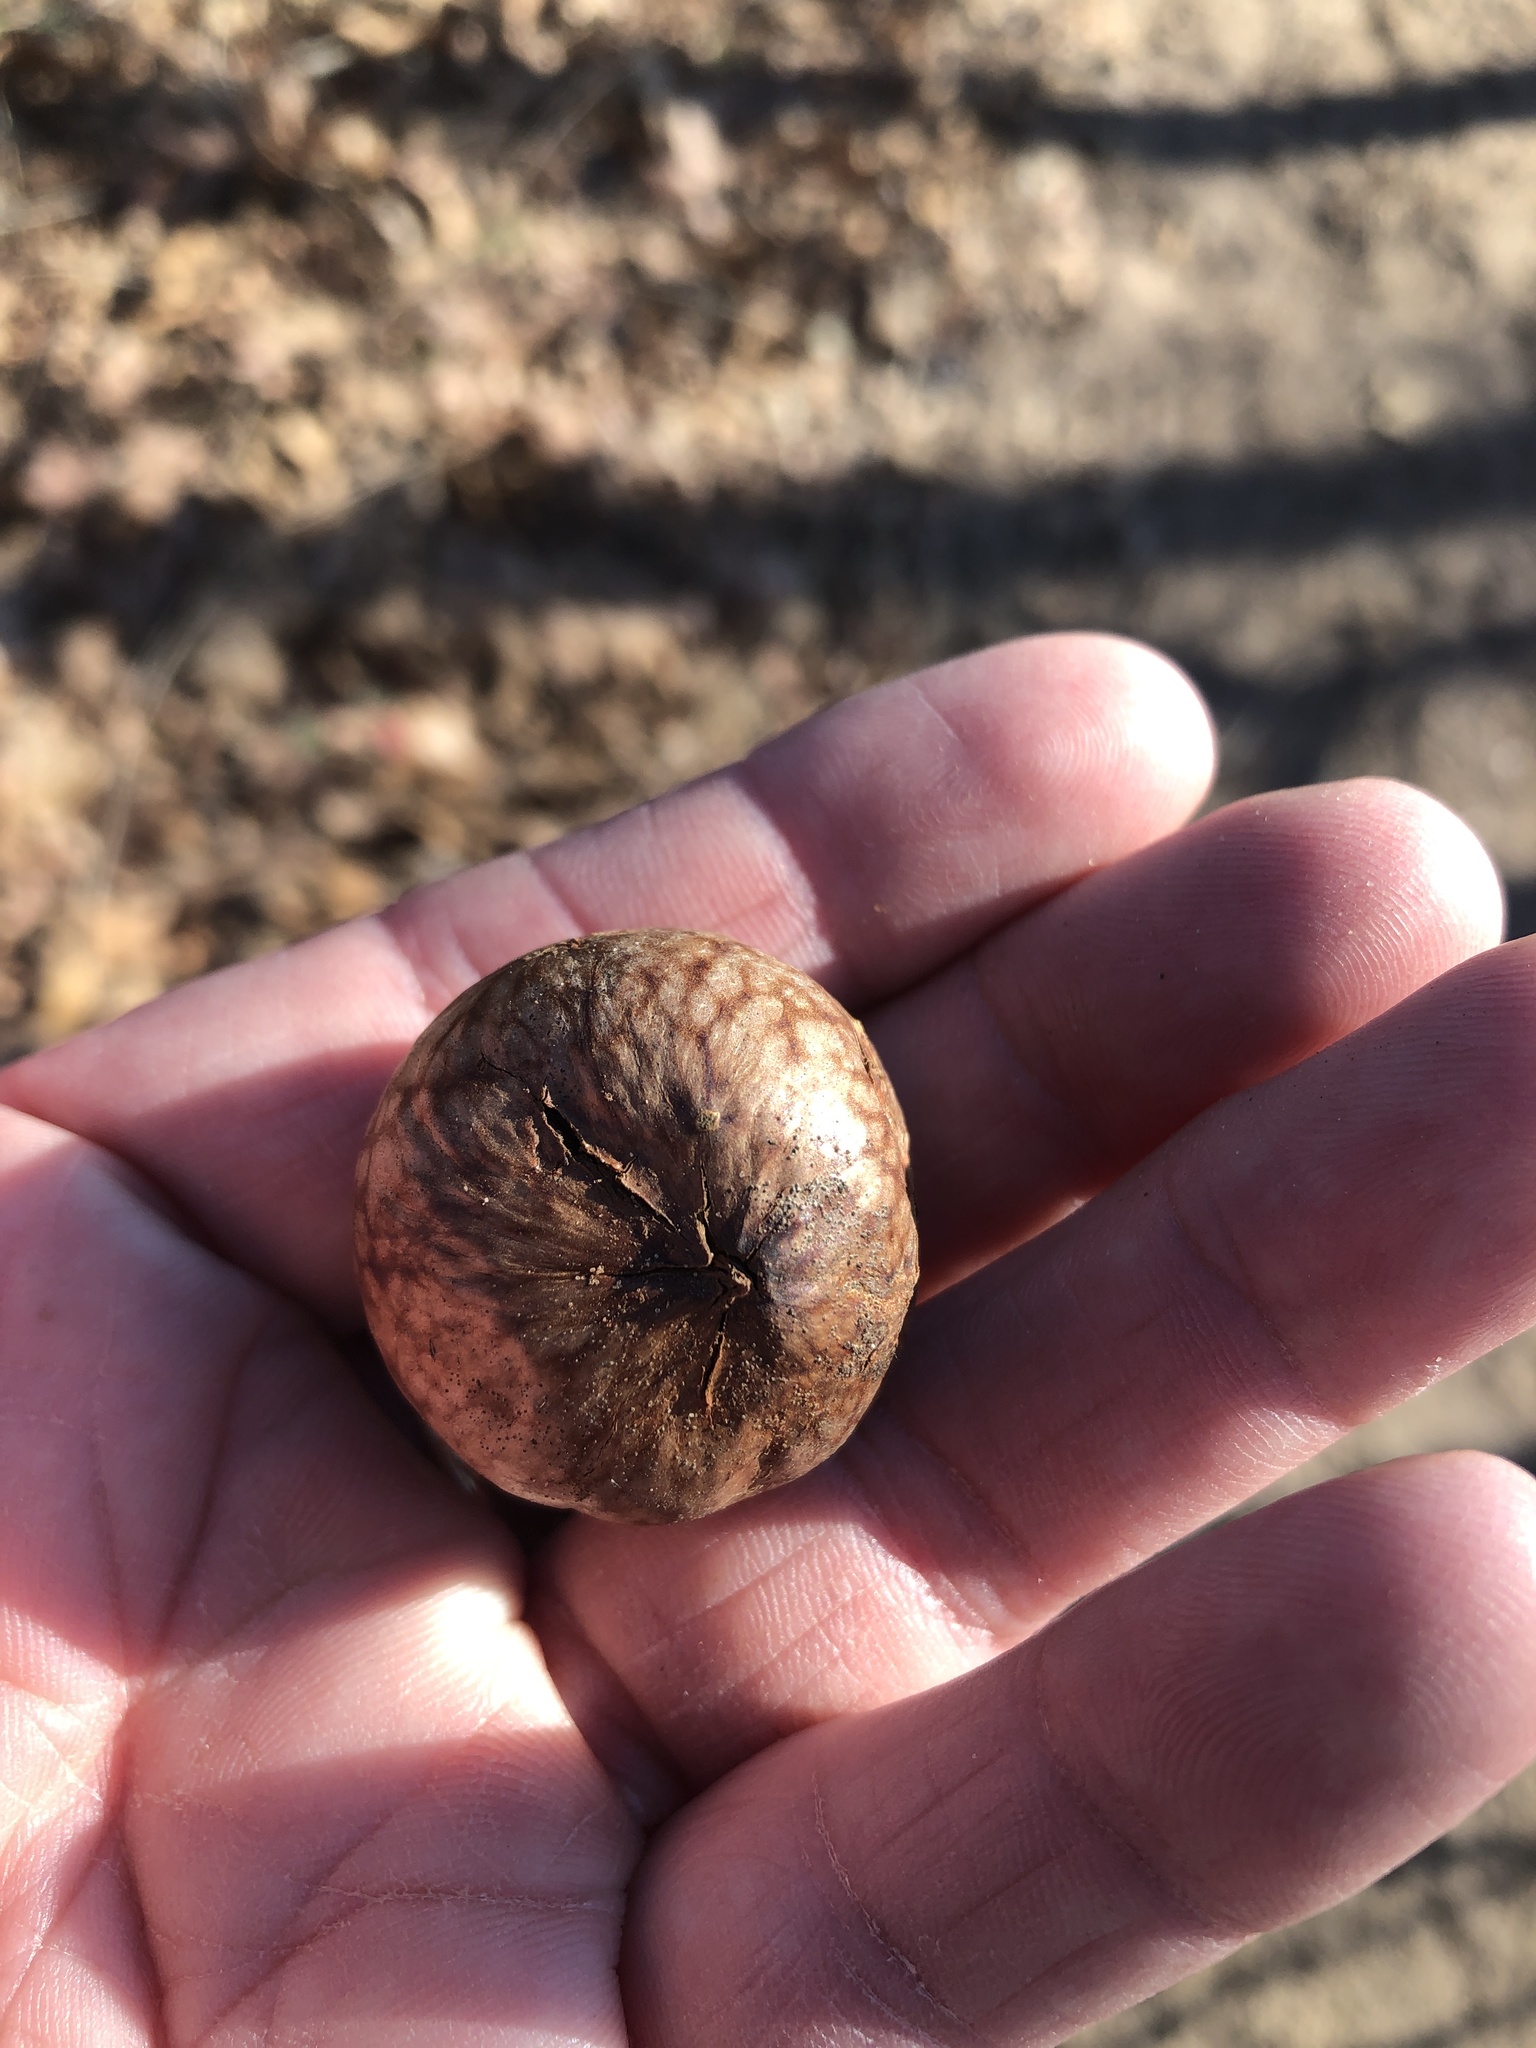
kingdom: Animalia
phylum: Arthropoda
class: Insecta
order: Hymenoptera
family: Cynipidae
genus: Amphibolips
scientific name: Amphibolips
